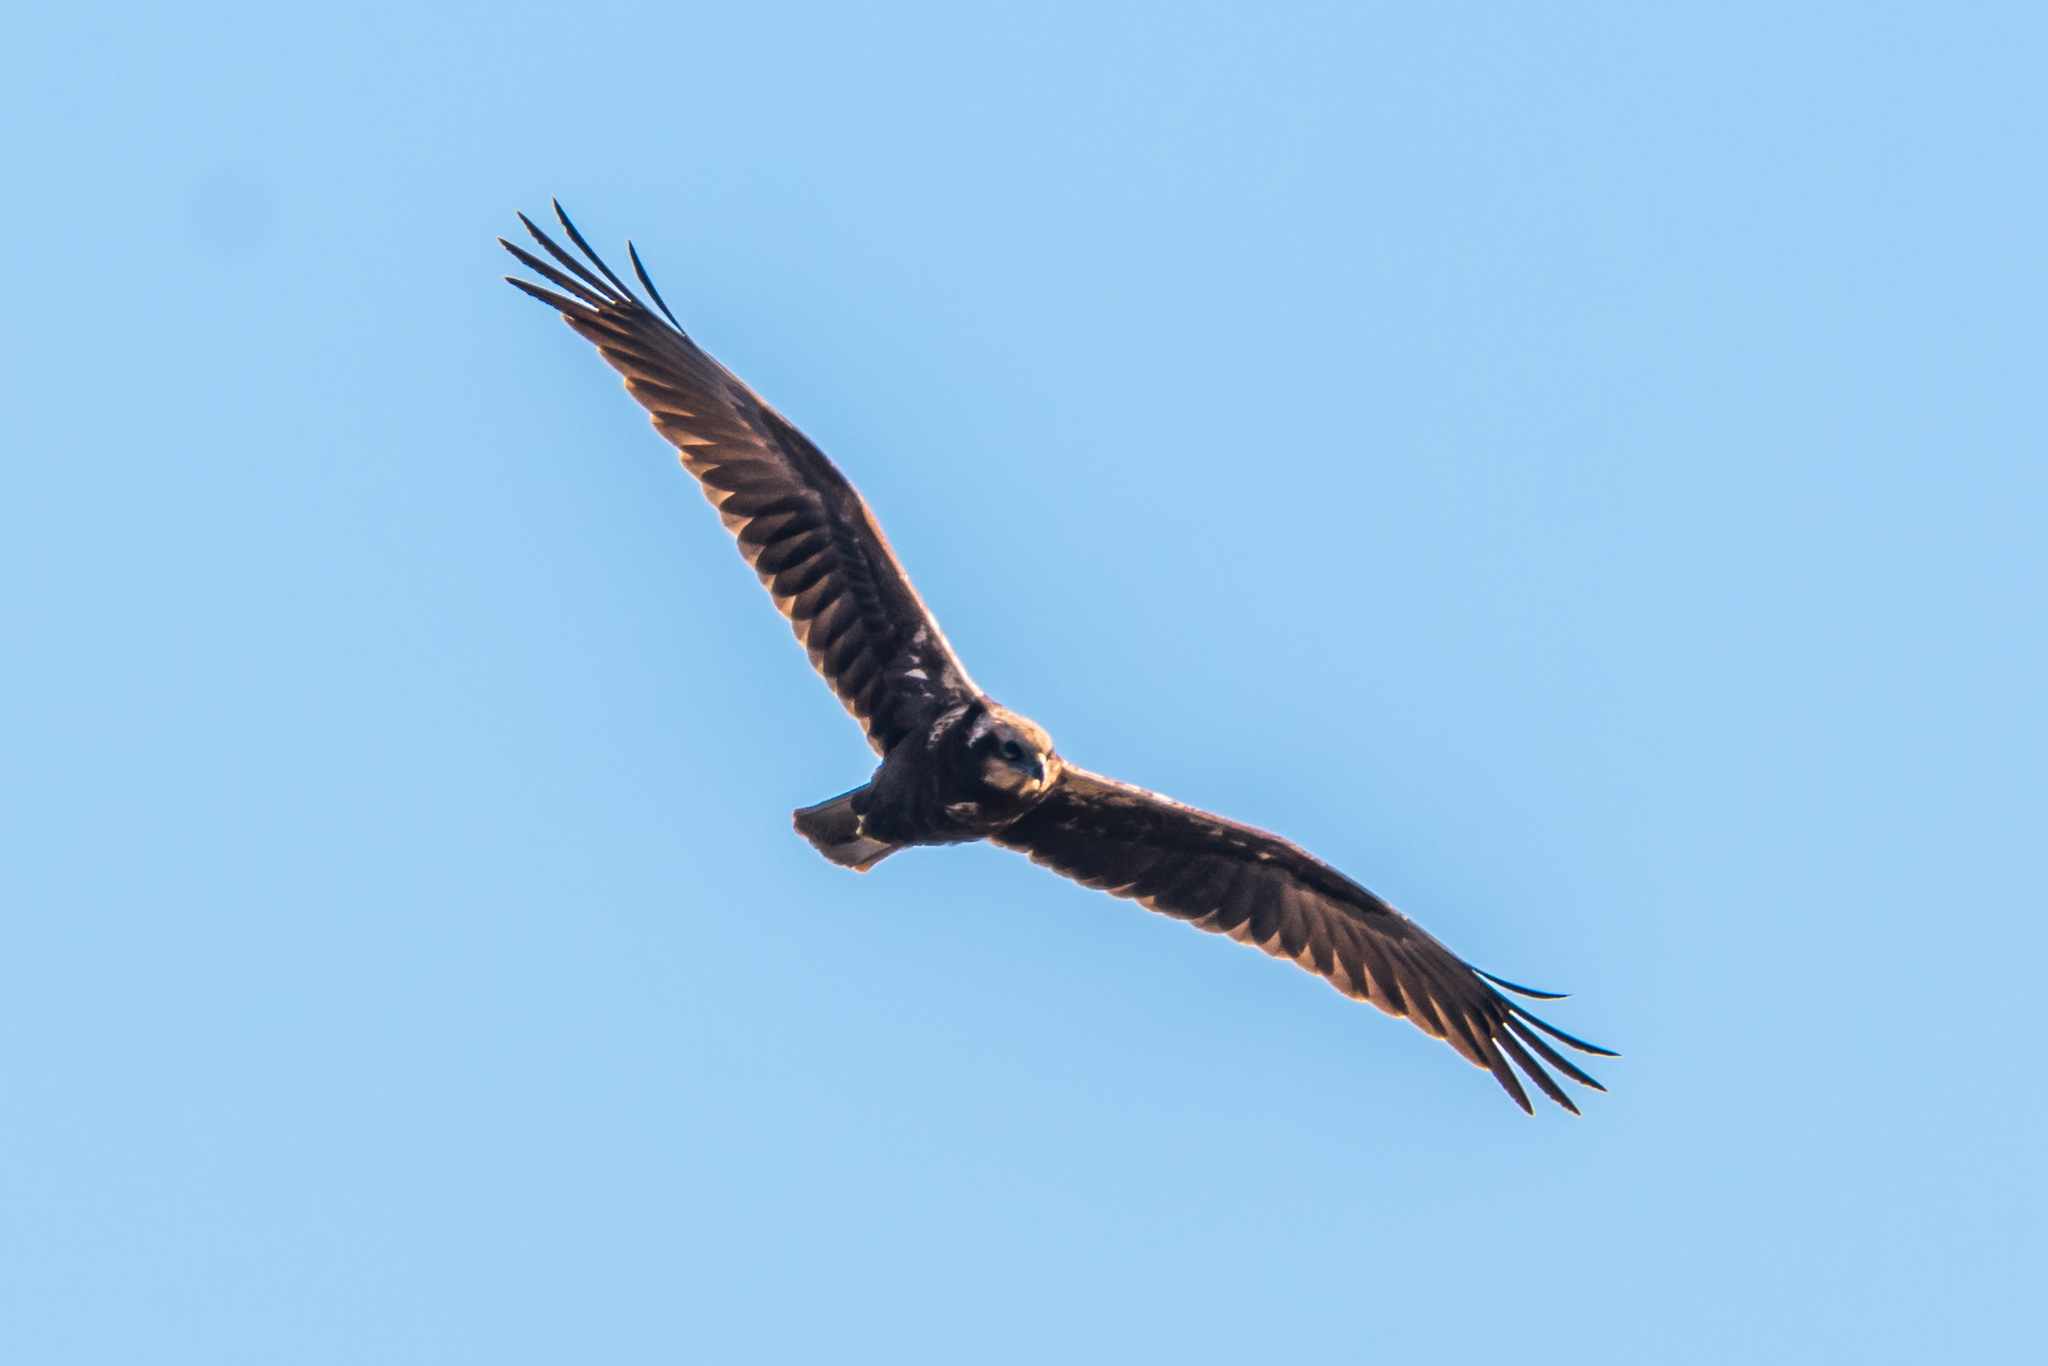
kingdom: Animalia
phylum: Chordata
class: Aves
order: Accipitriformes
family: Accipitridae
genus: Circus
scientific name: Circus aeruginosus
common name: Western marsh harrier
